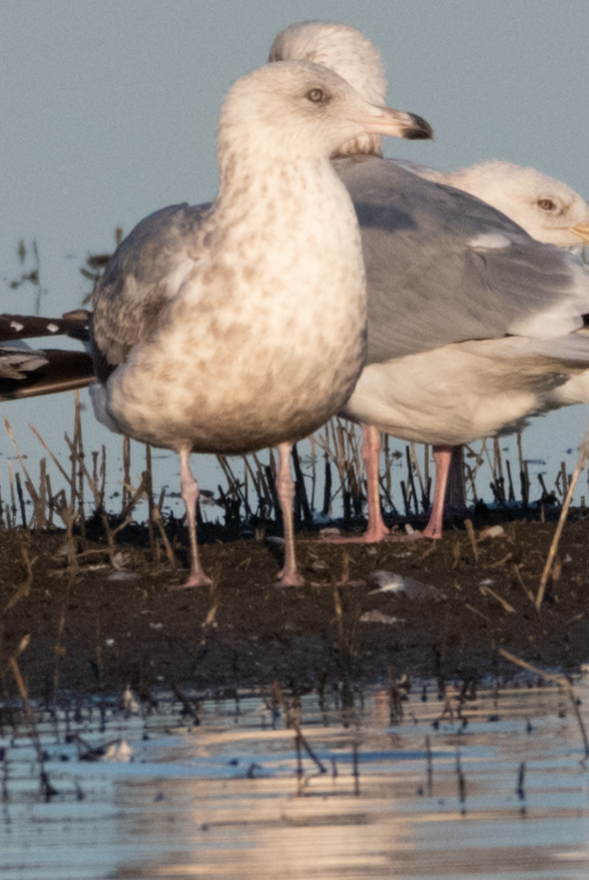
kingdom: Animalia
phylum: Chordata
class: Aves
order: Charadriiformes
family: Laridae
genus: Larus
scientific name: Larus argentatus
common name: Herring gull
